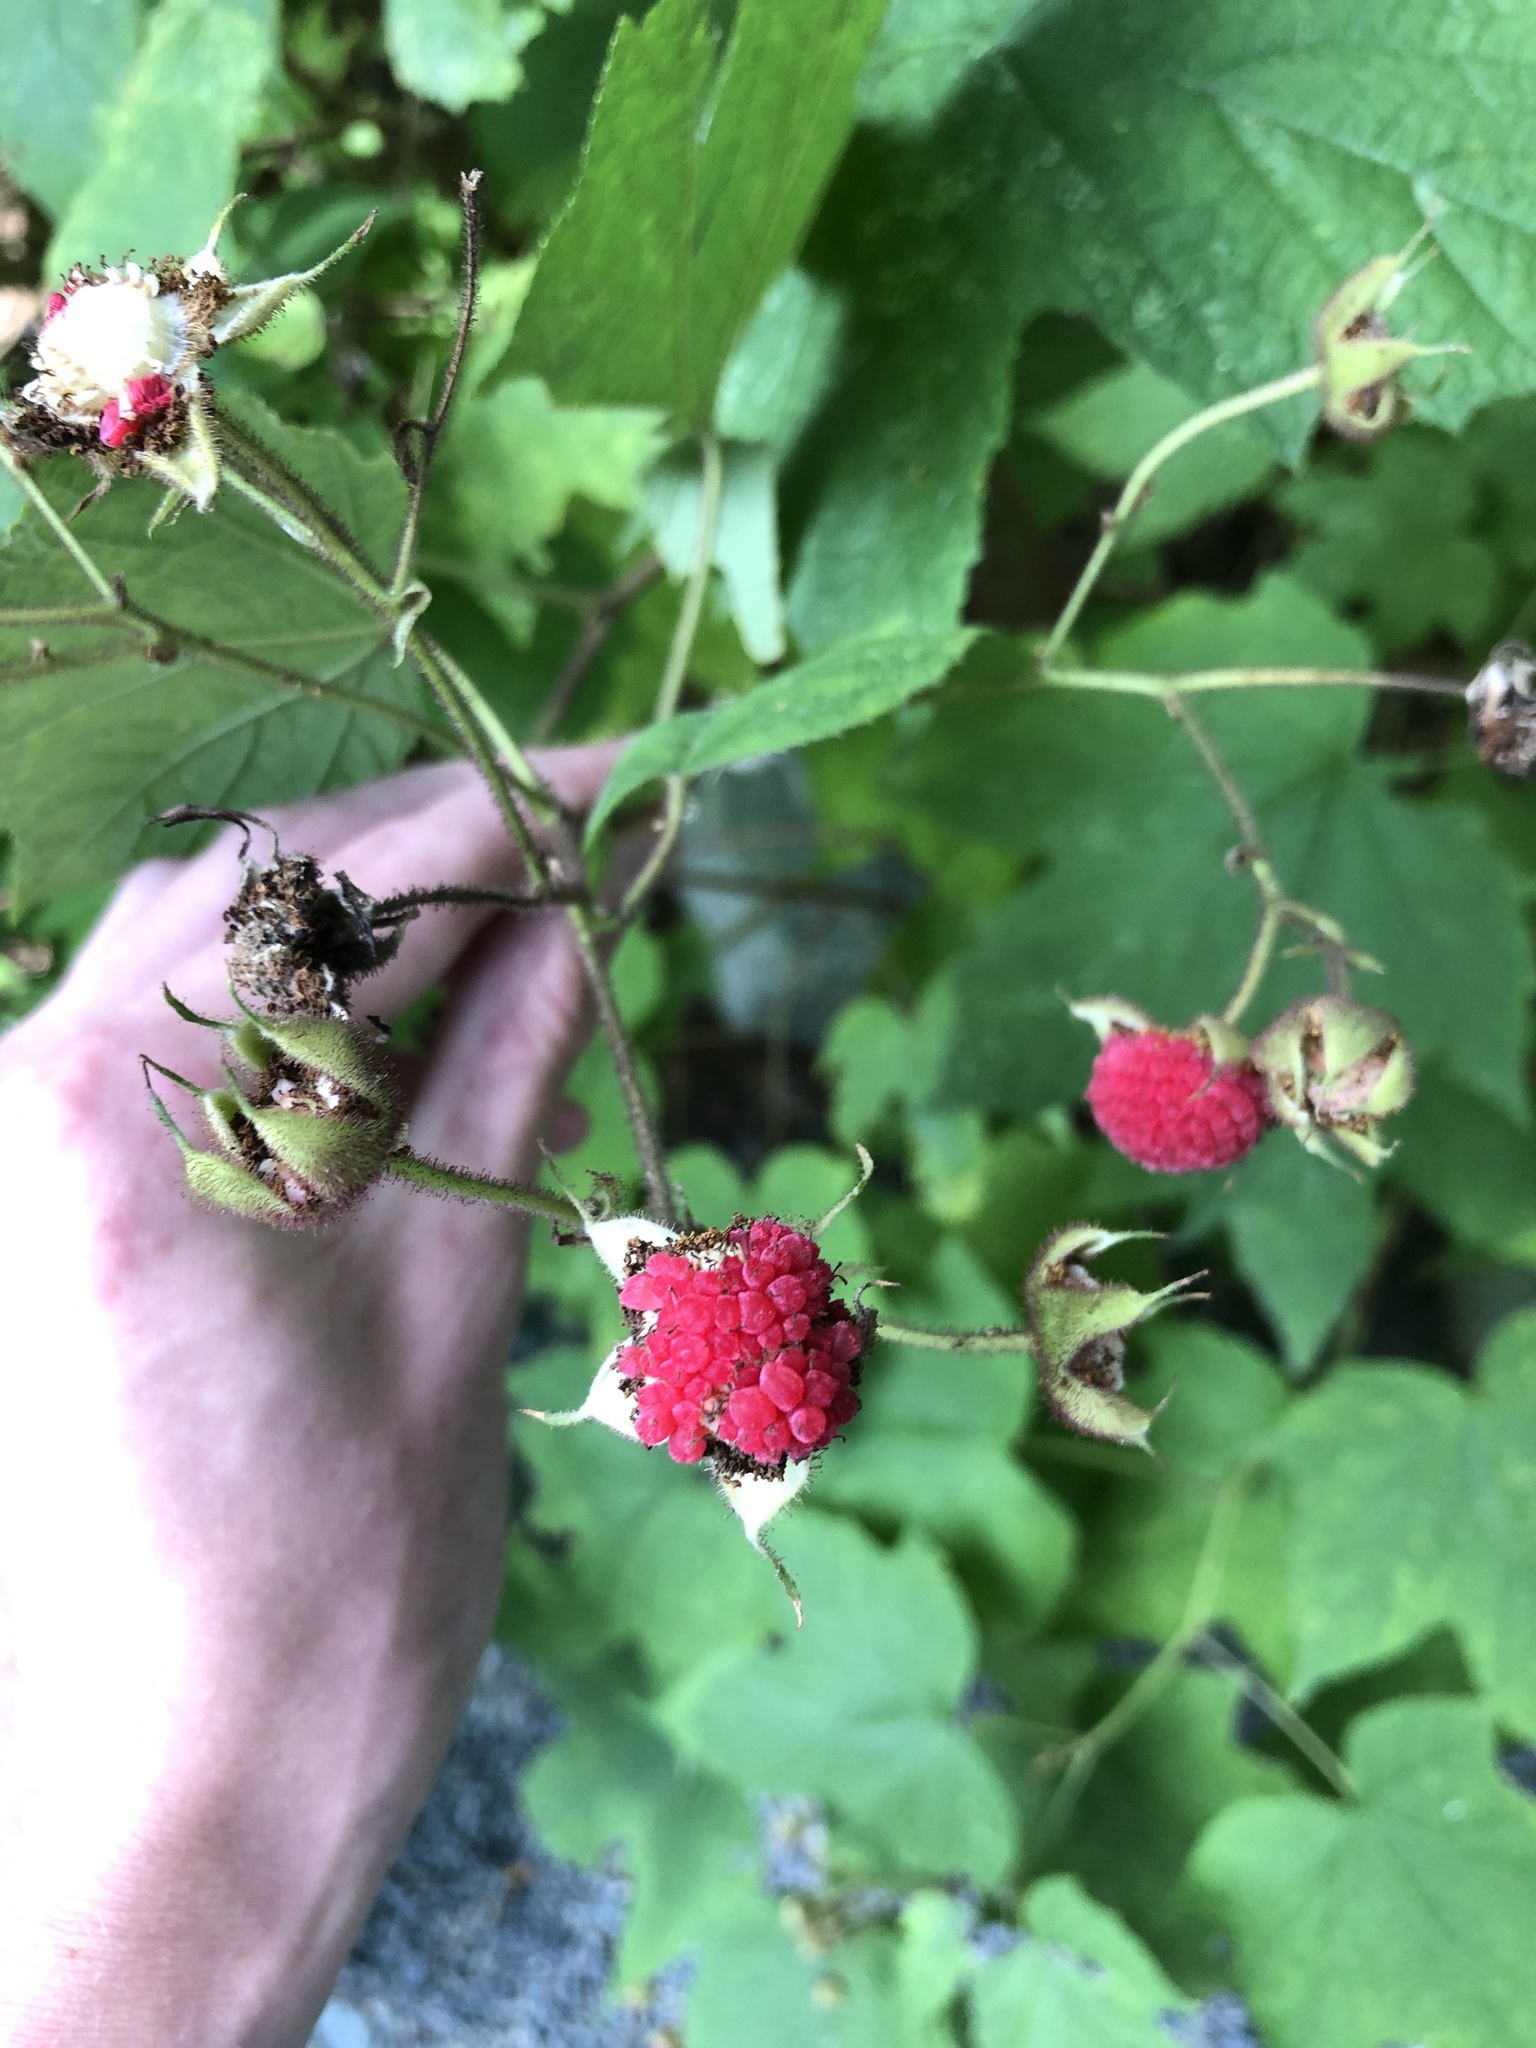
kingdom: Plantae
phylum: Tracheophyta
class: Magnoliopsida
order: Rosales
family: Rosaceae
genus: Rubus
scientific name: Rubus odoratus
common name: Purple-flowered raspberry
